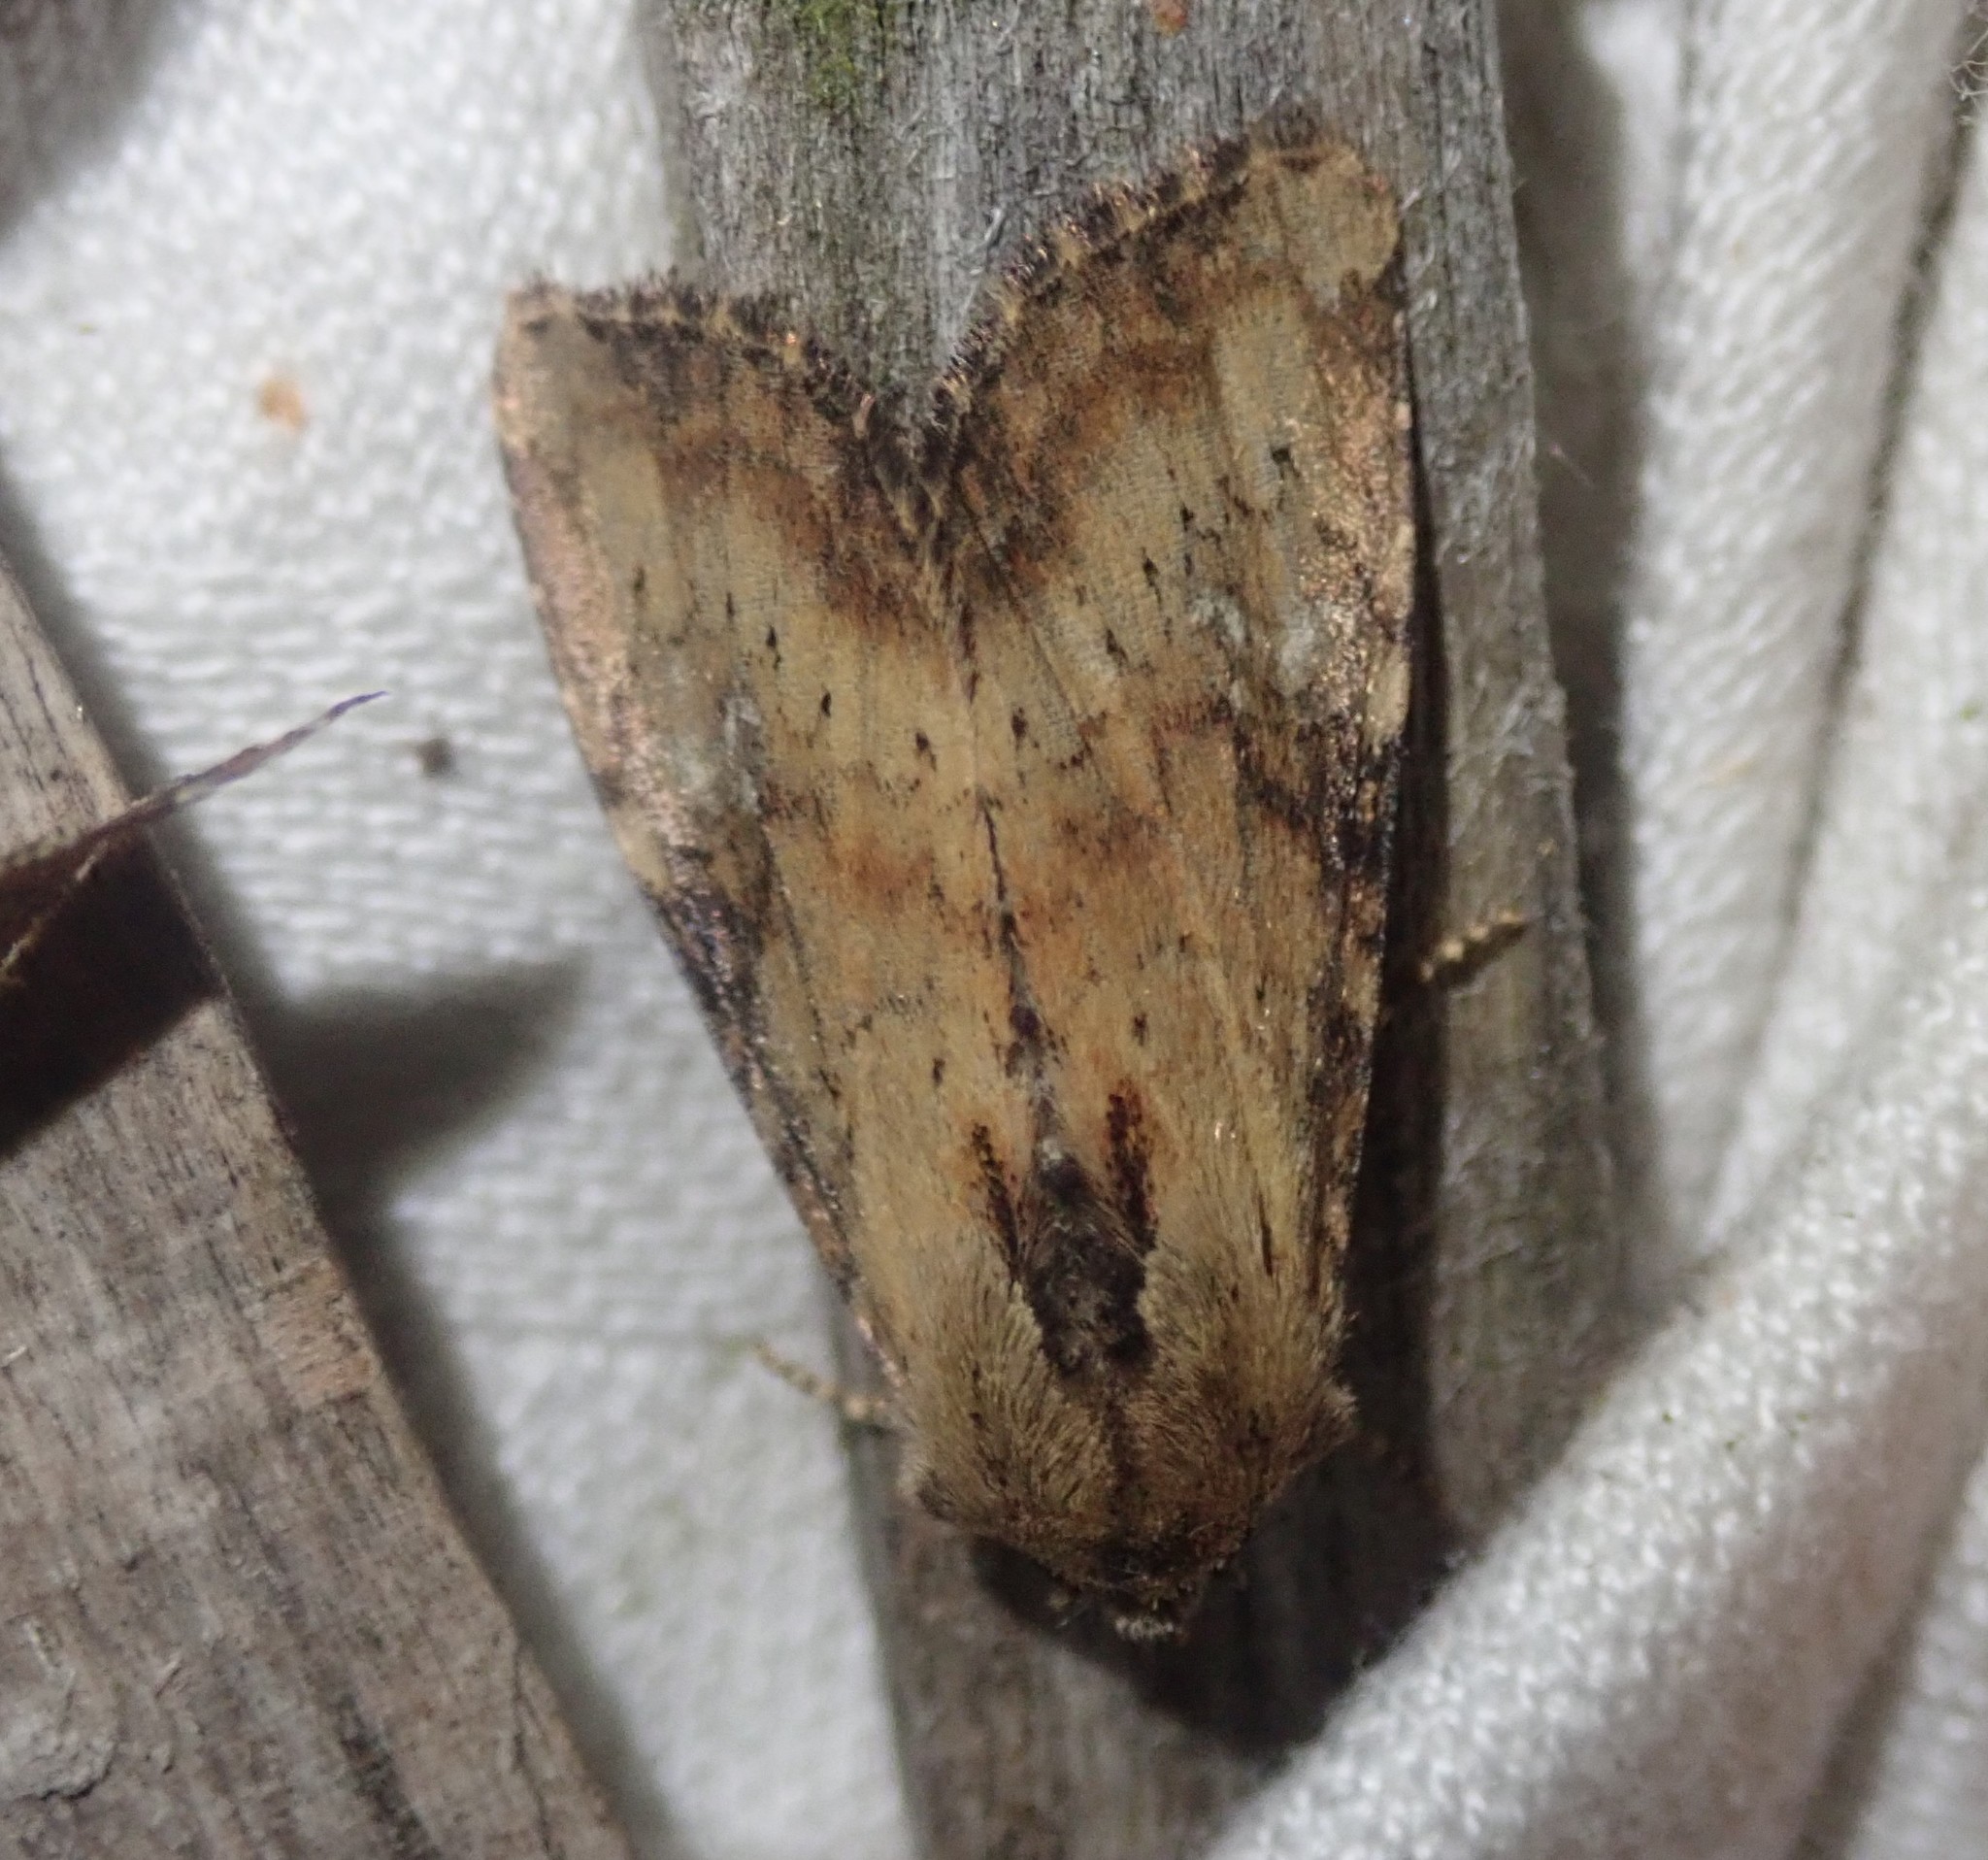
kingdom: Animalia
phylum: Arthropoda
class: Insecta
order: Lepidoptera
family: Noctuidae
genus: Loscopia
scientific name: Loscopia scolopacina
